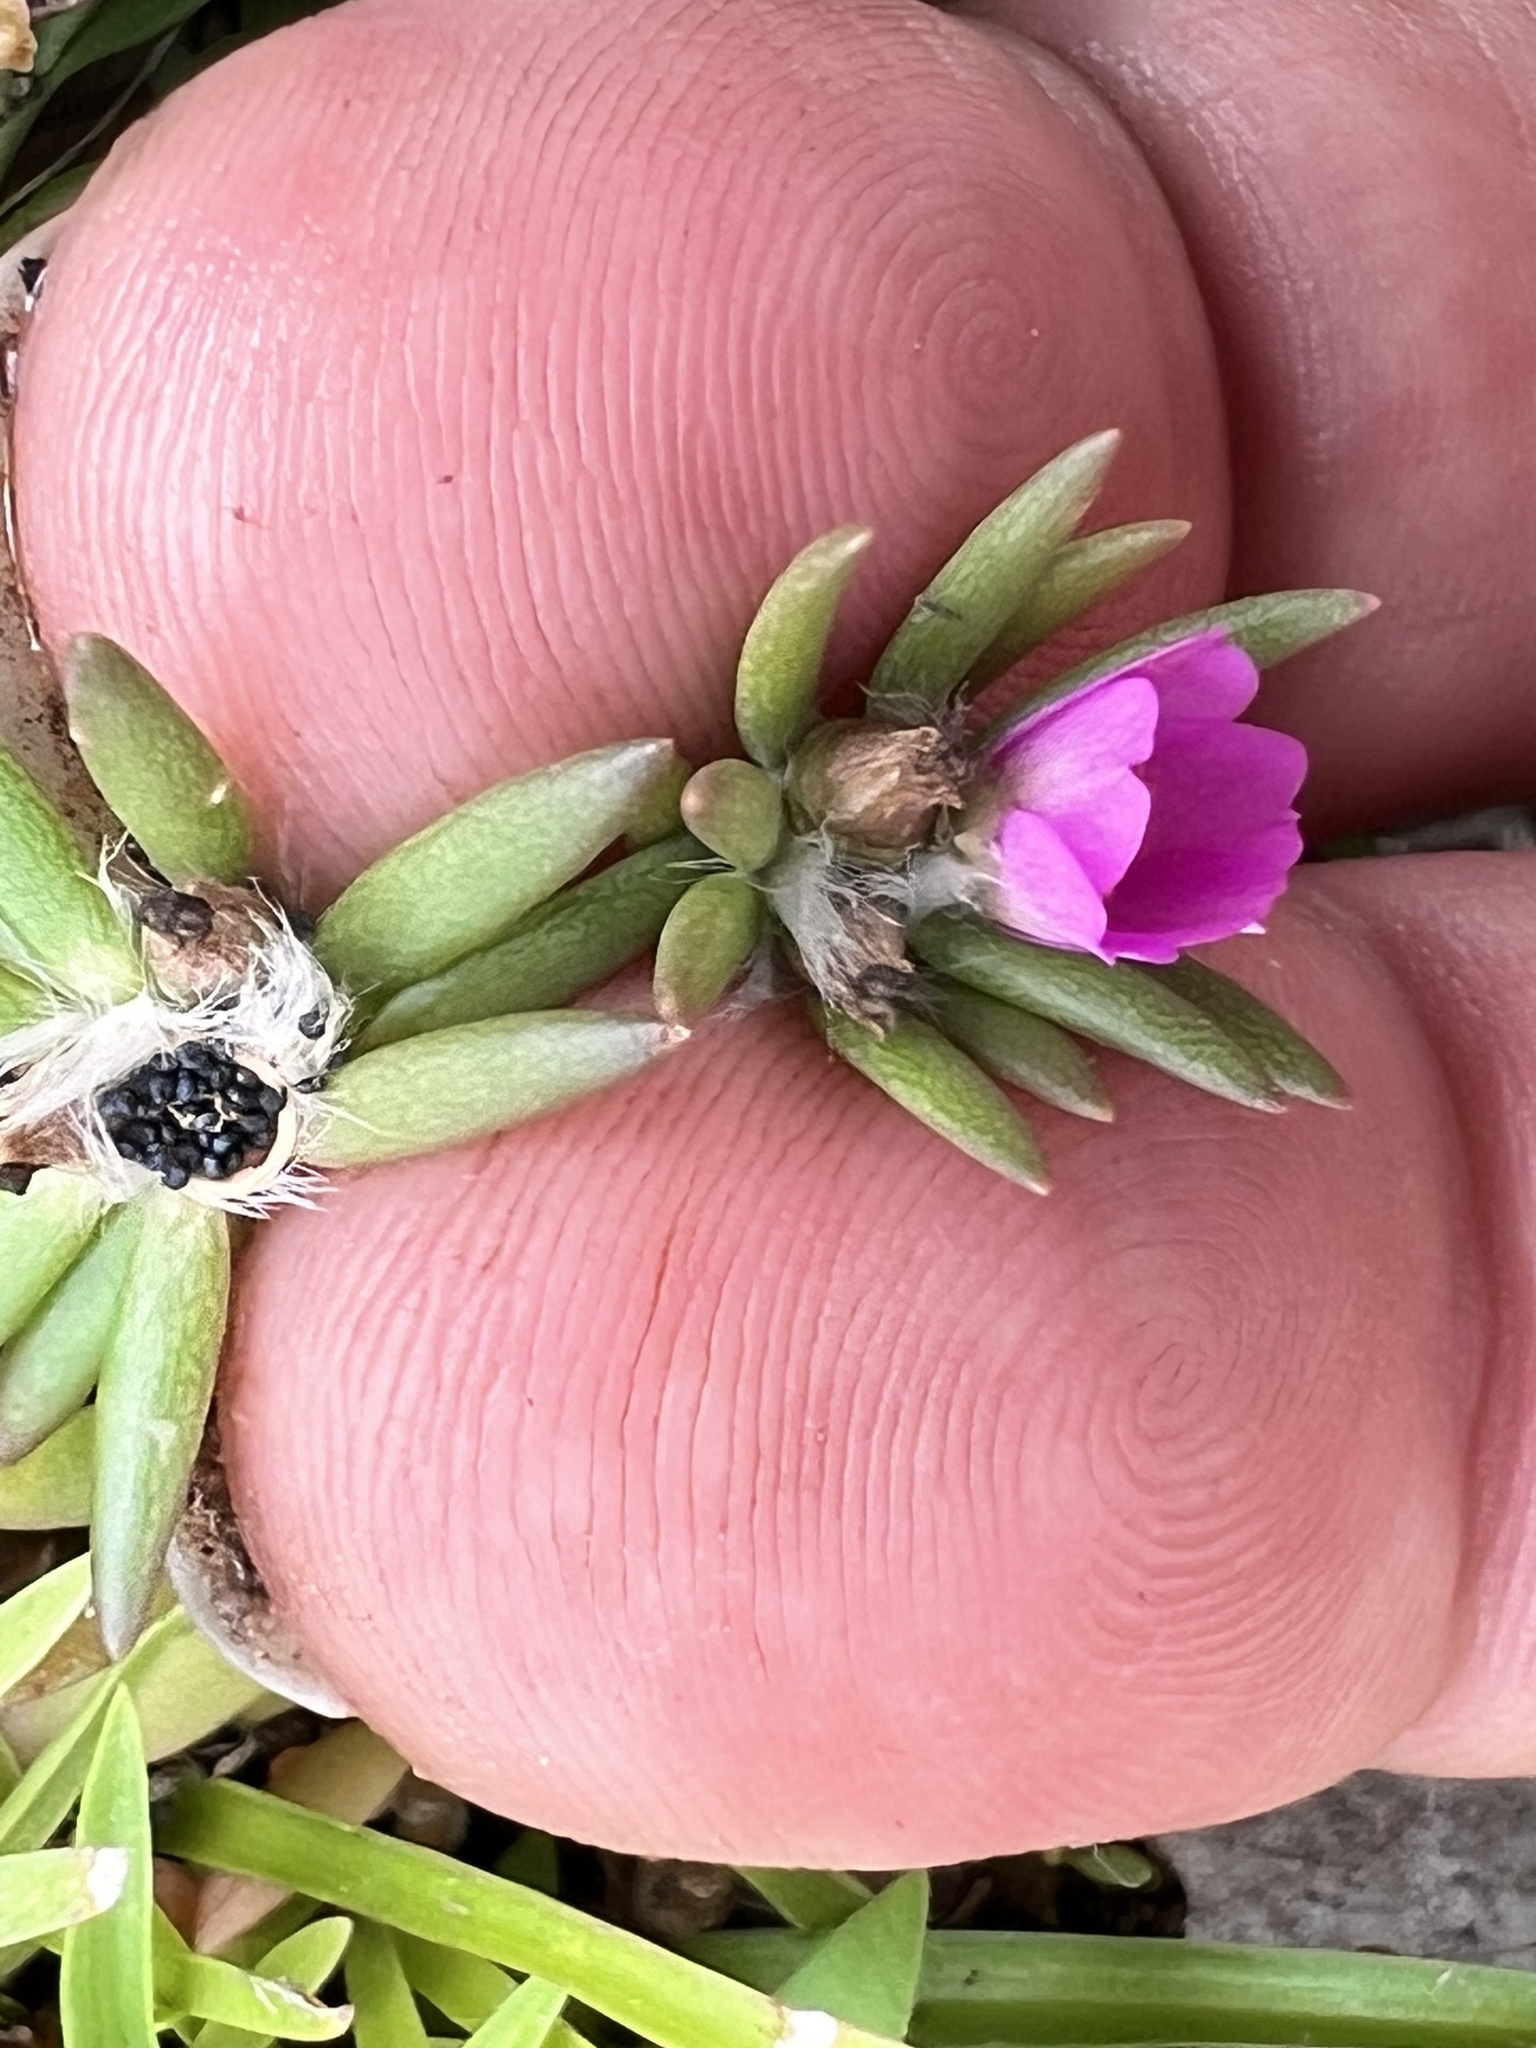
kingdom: Plantae
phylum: Tracheophyta
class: Magnoliopsida
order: Caryophyllales
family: Portulacaceae
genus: Portulaca
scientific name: Portulaca pilosa
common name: Kiss me quick
